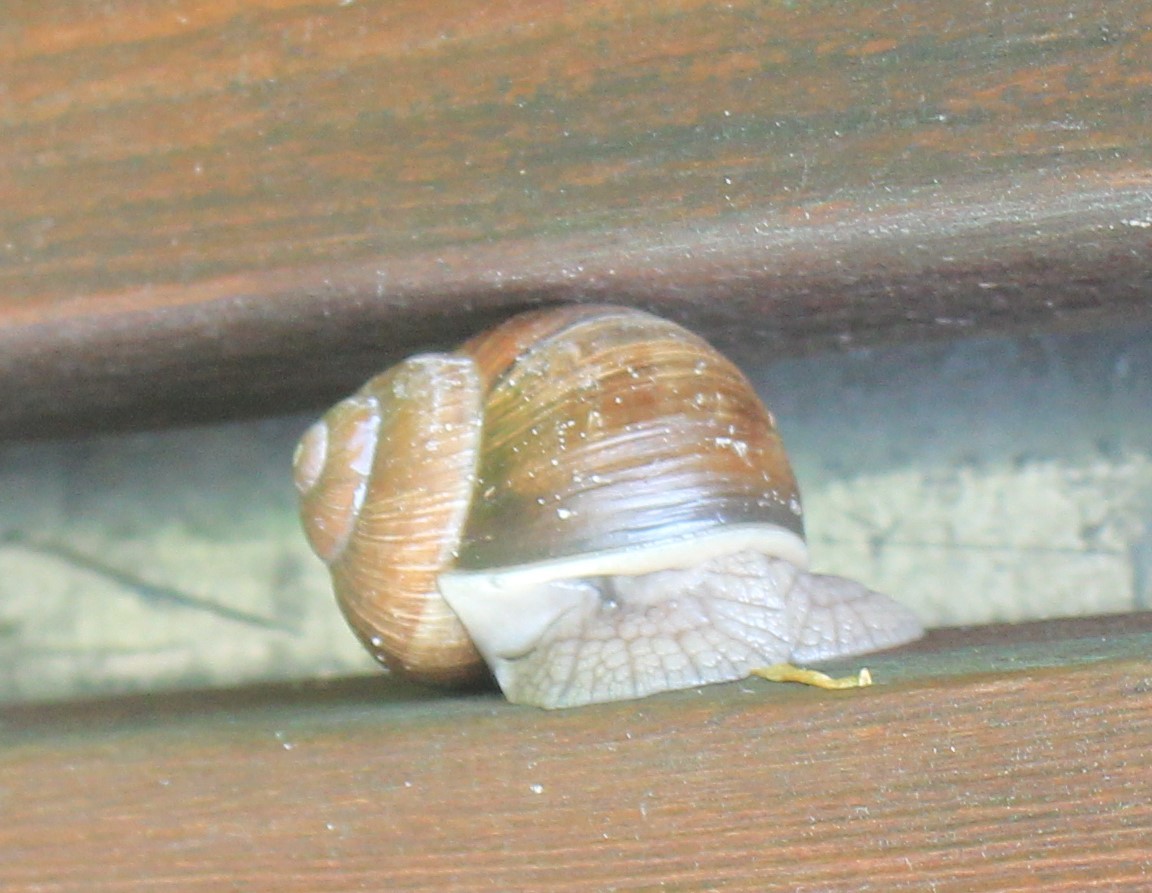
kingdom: Animalia
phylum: Mollusca
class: Gastropoda
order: Stylommatophora
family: Helicidae
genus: Helix
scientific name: Helix pomatia
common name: Roman snail
